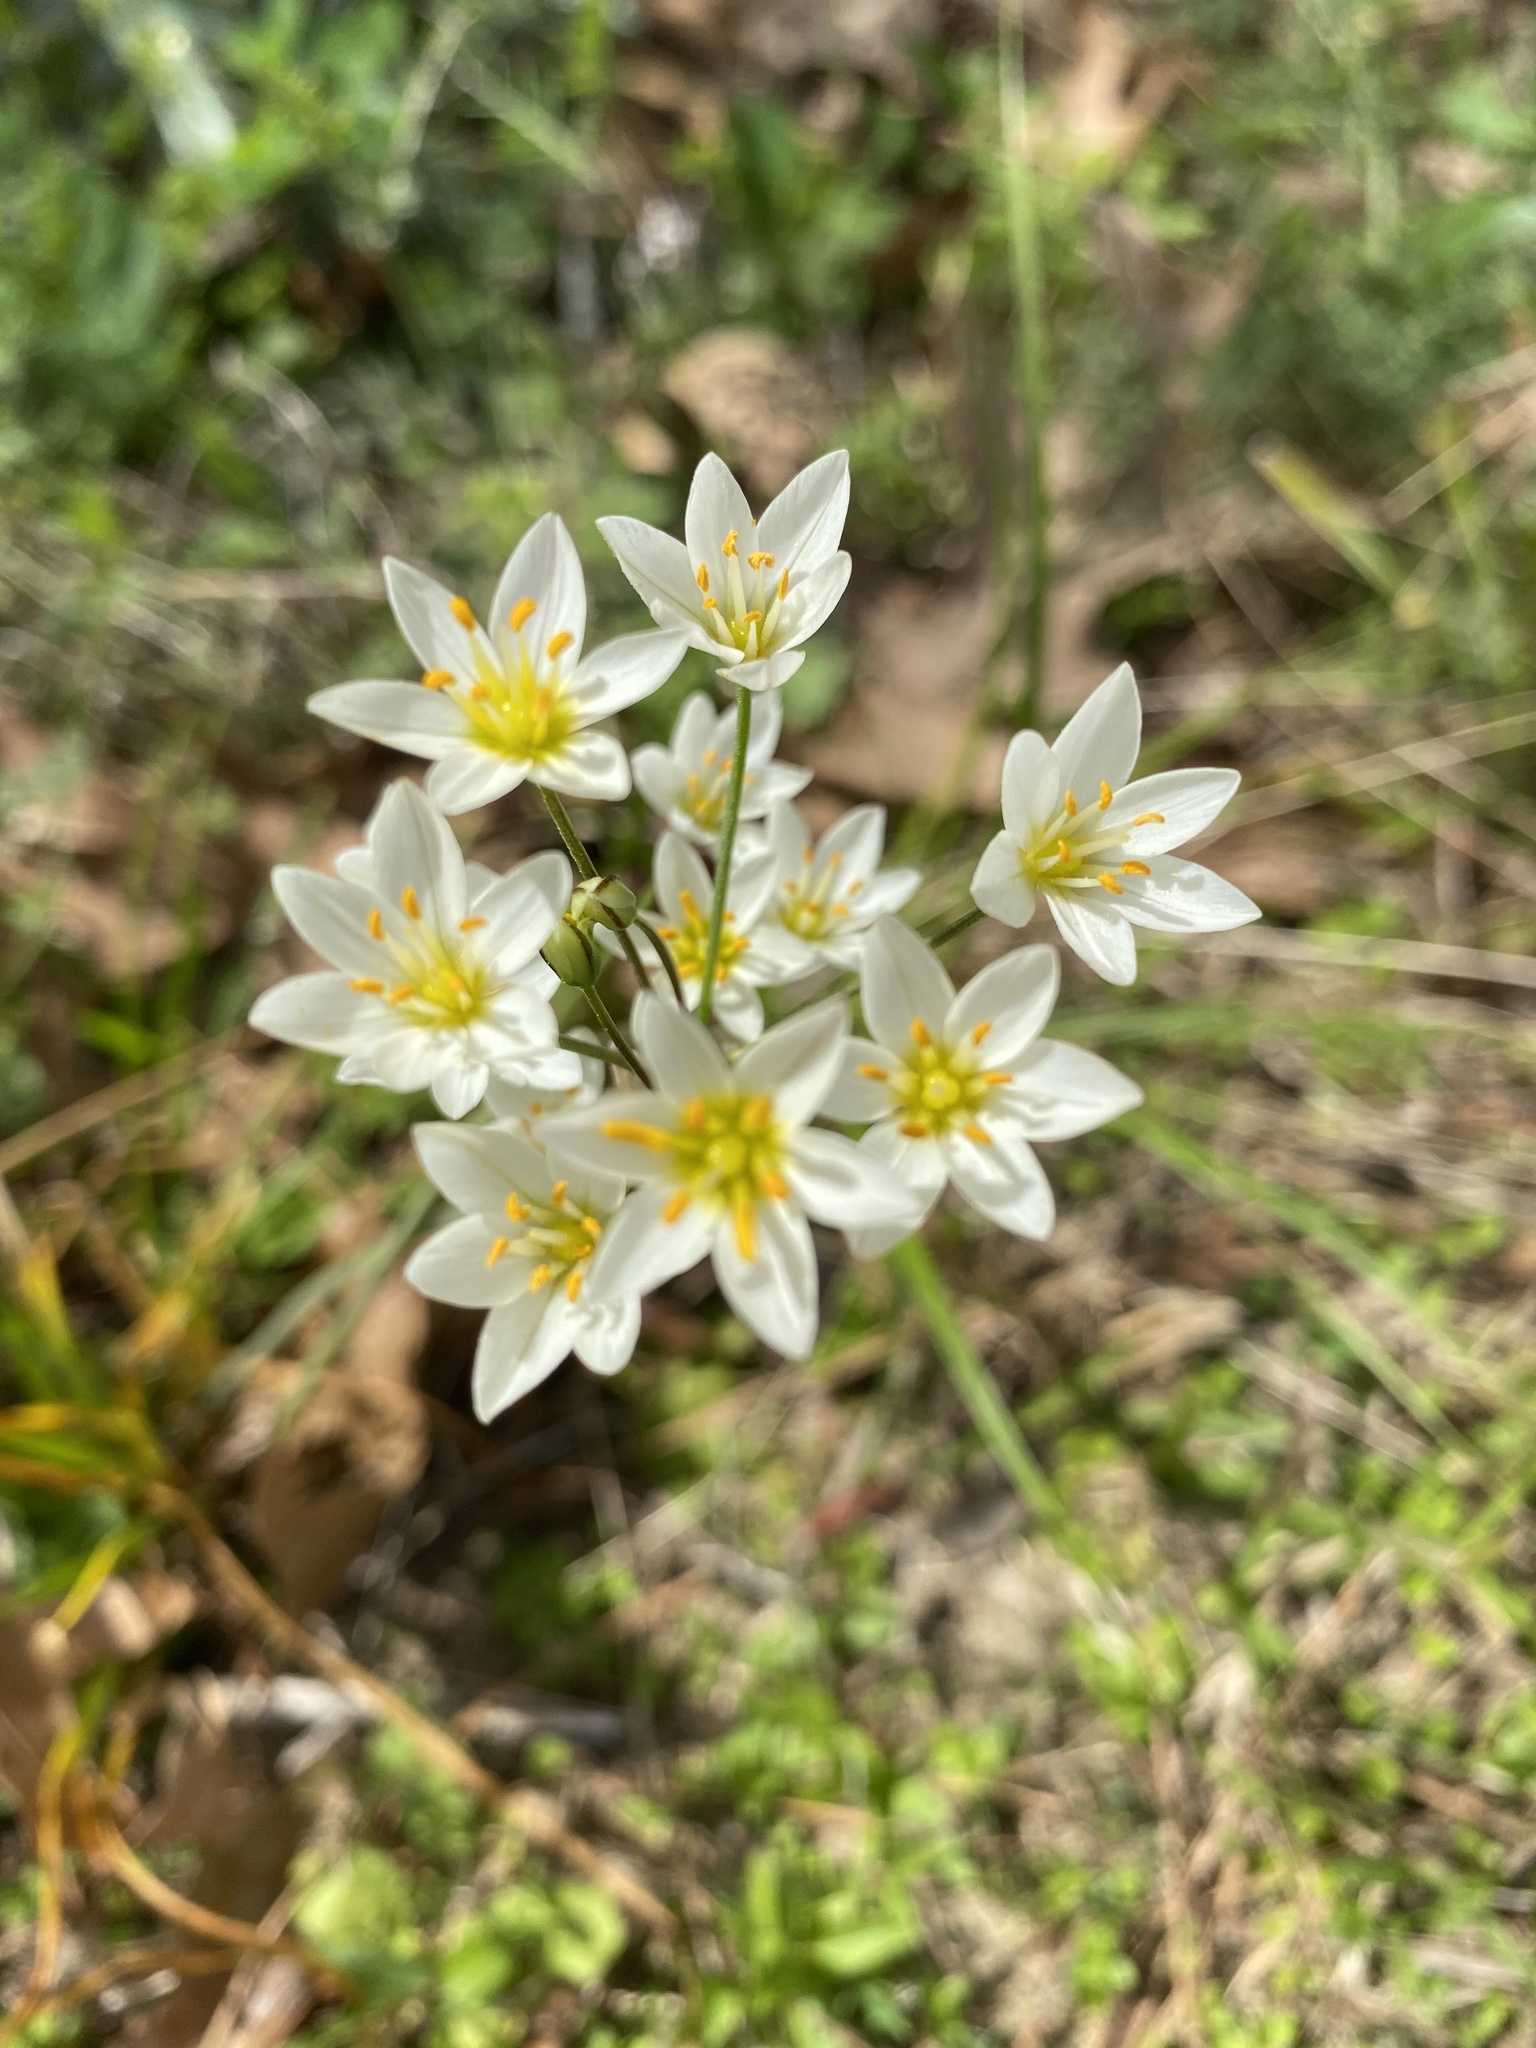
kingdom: Plantae
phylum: Tracheophyta
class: Liliopsida
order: Asparagales
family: Amaryllidaceae
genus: Nothoscordum
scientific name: Nothoscordum bivalve
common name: Crow-poison
